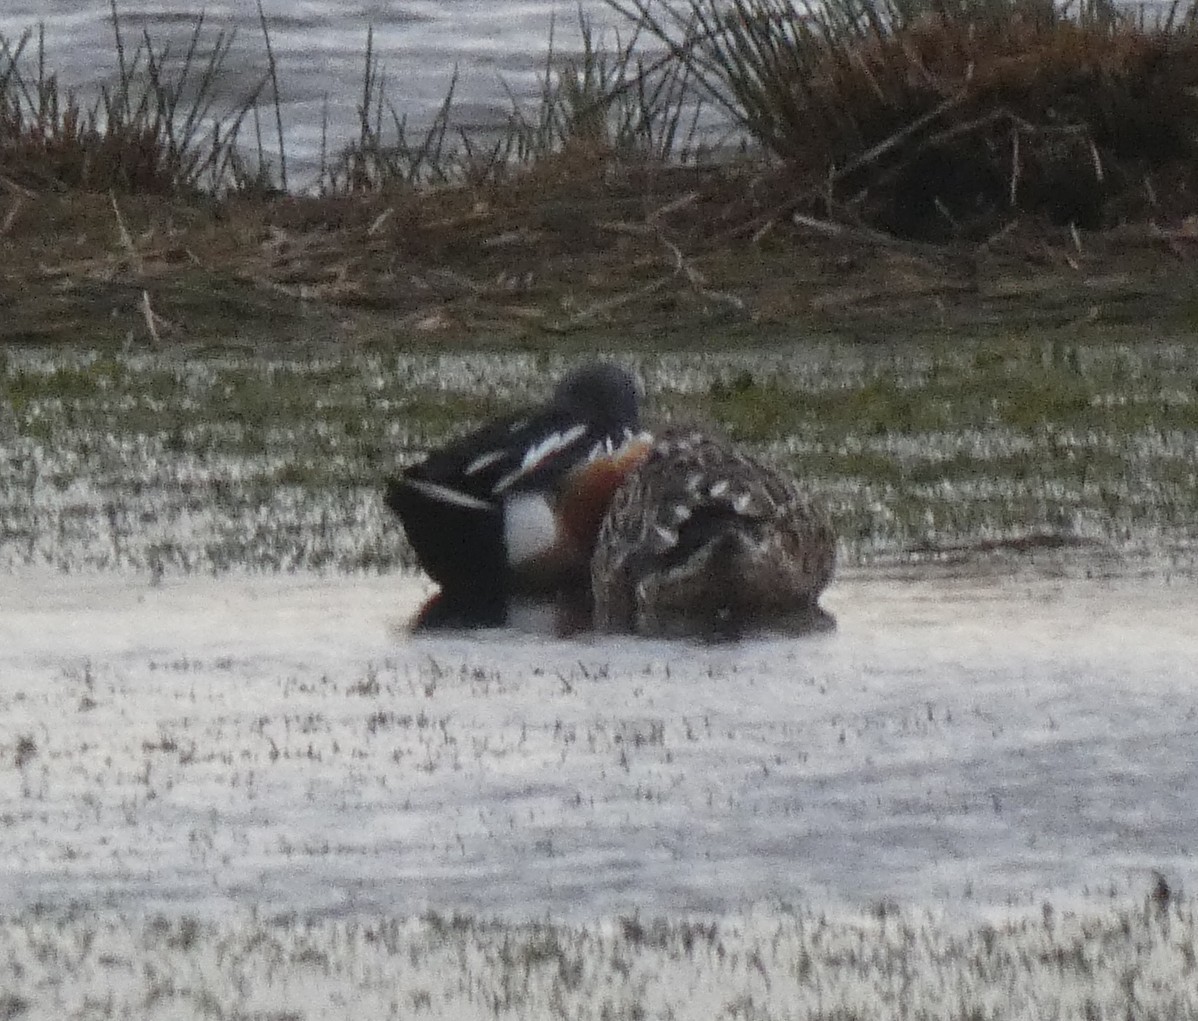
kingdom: Animalia
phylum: Chordata
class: Aves
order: Anseriformes
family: Anatidae
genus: Spatula
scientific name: Spatula clypeata
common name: Northern shoveler
